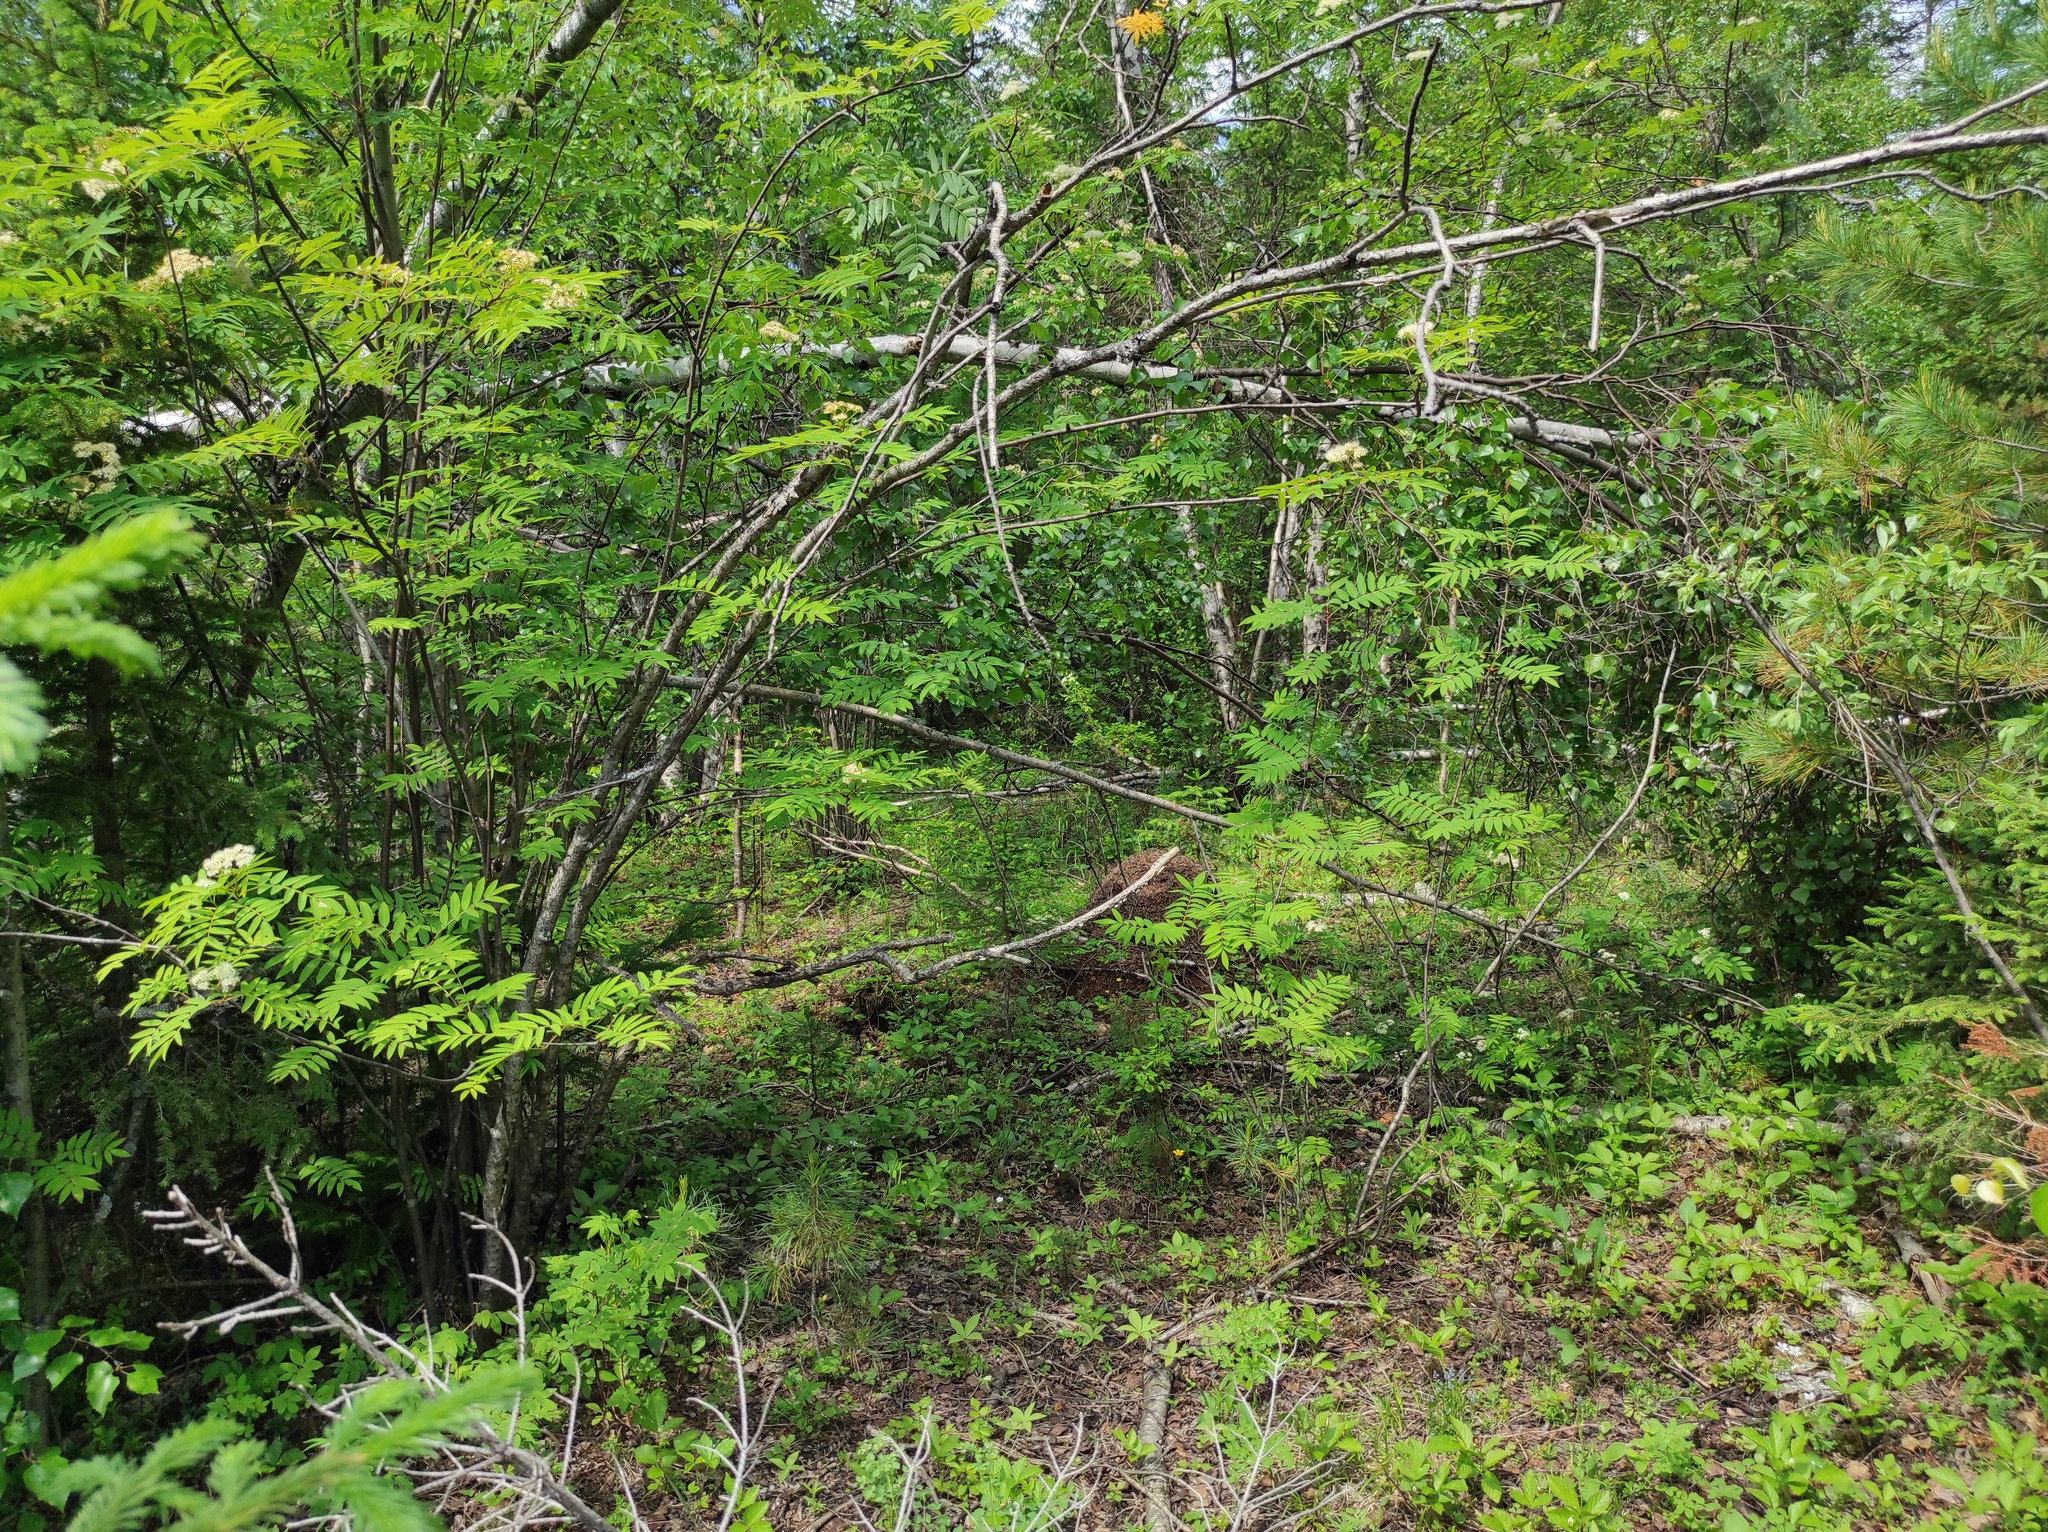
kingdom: Plantae
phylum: Tracheophyta
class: Pinopsida
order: Pinales
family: Pinaceae
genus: Picea
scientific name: Picea obovata
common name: Siberian spruce
